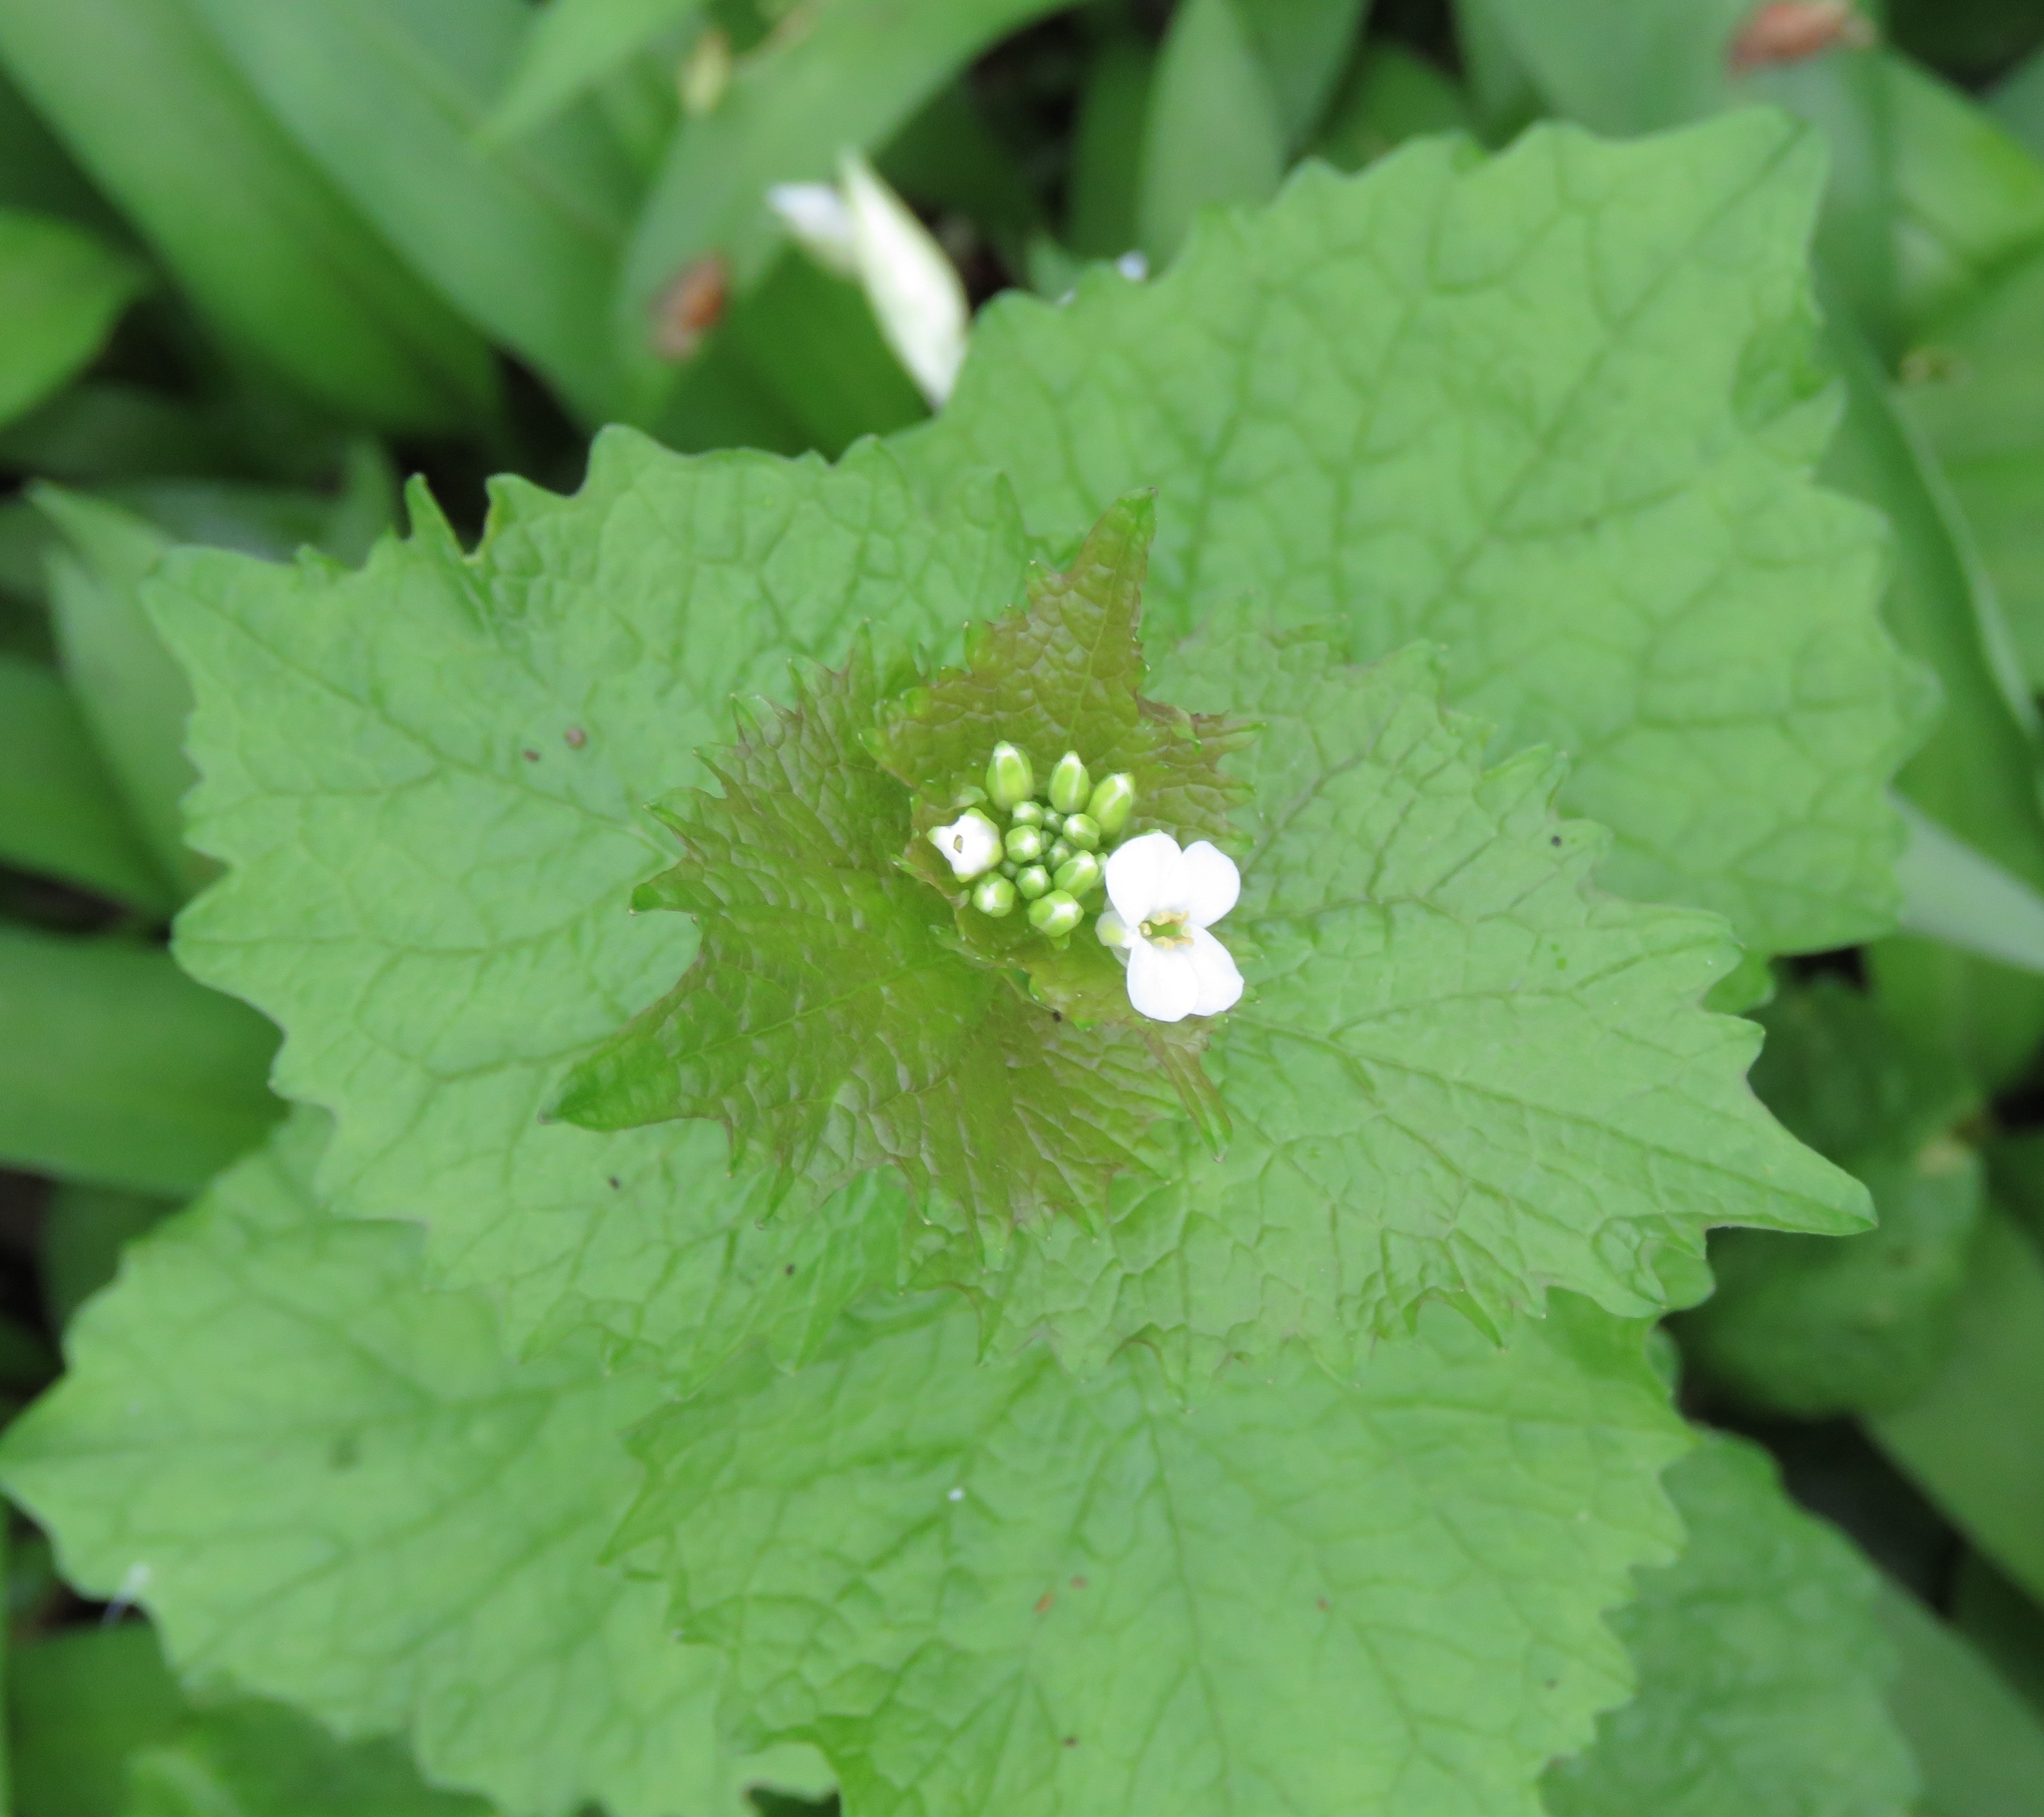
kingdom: Plantae
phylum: Tracheophyta
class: Magnoliopsida
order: Brassicales
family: Brassicaceae
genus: Alliaria
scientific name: Alliaria petiolata
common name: Garlic mustard
